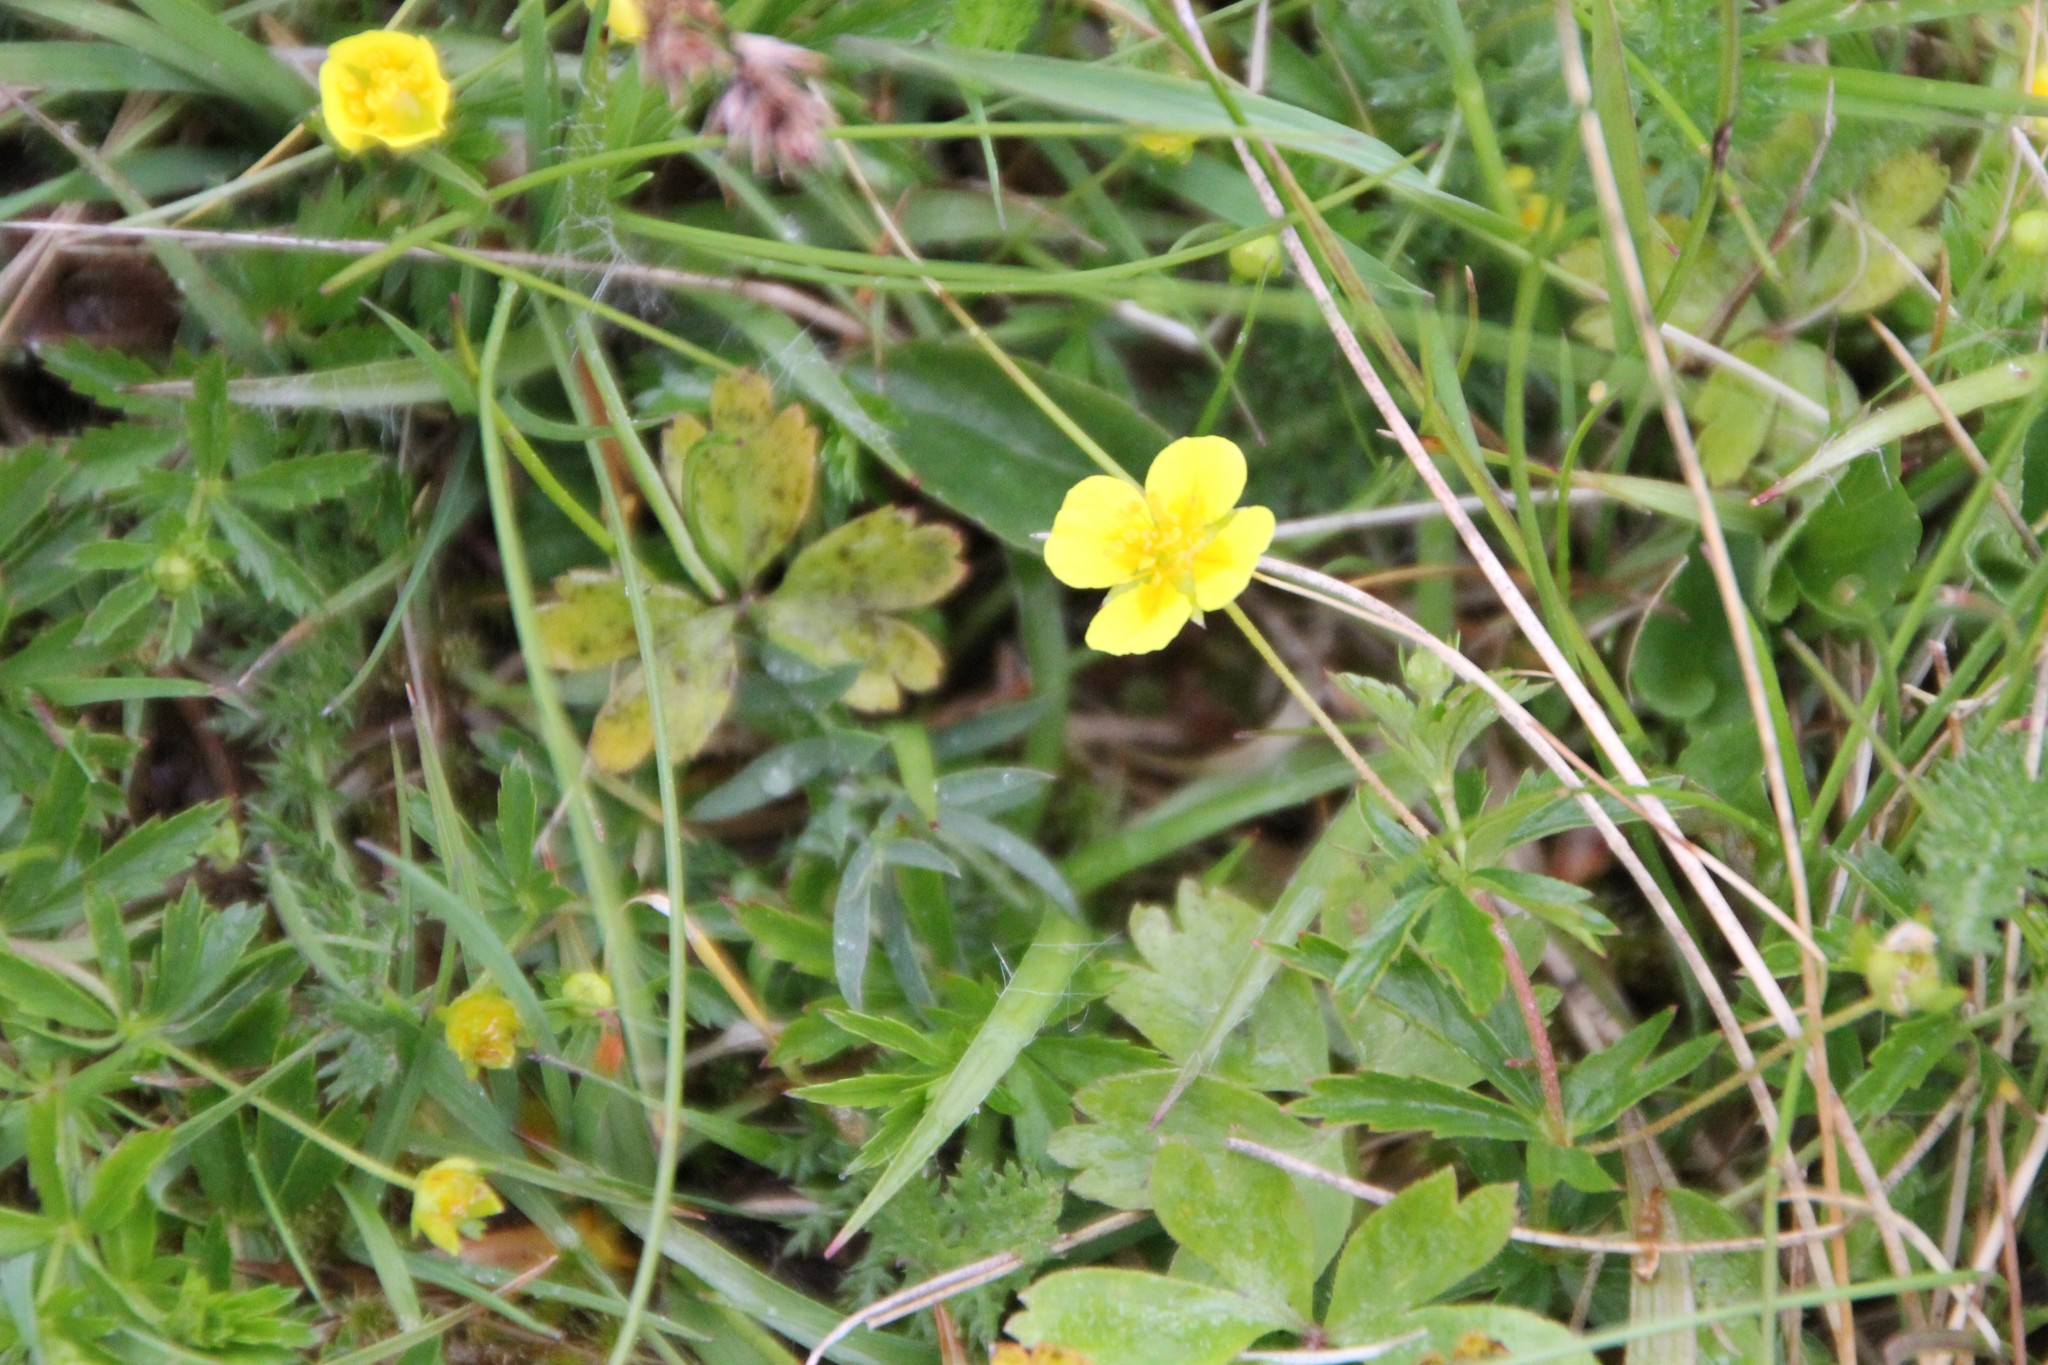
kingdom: Plantae
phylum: Tracheophyta
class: Magnoliopsida
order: Rosales
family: Rosaceae
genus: Potentilla
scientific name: Potentilla erecta
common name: Tormentil
